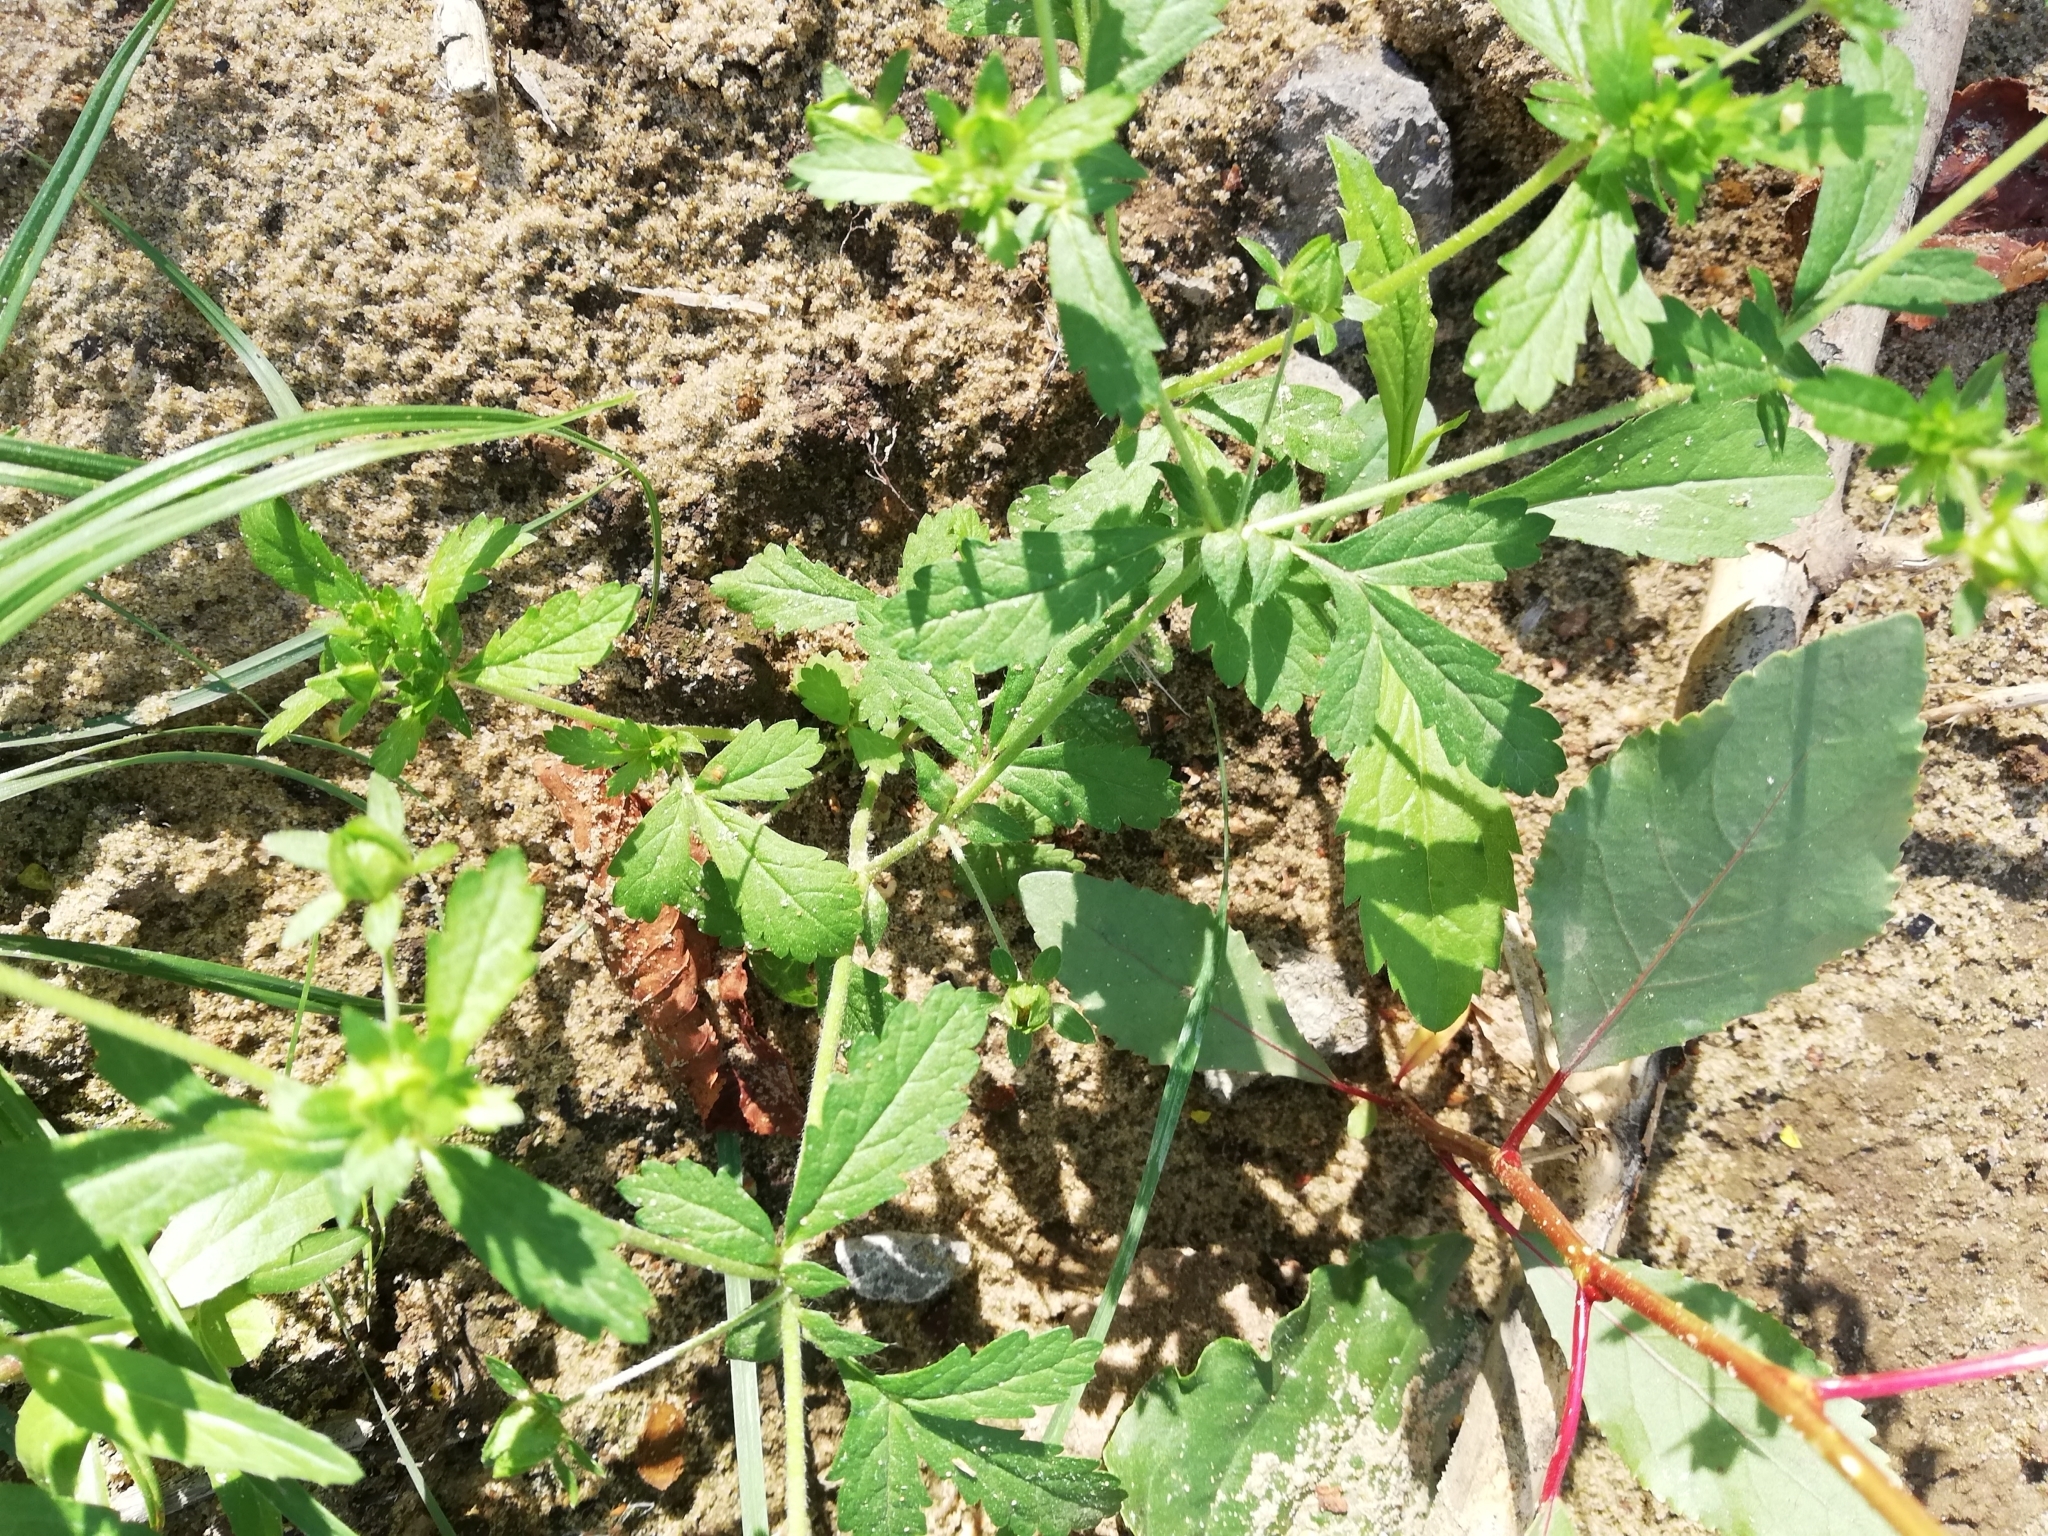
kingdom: Plantae
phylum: Tracheophyta
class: Magnoliopsida
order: Rosales
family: Rosaceae
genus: Potentilla
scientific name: Potentilla norvegica
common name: Ternate-leaved cinquefoil
